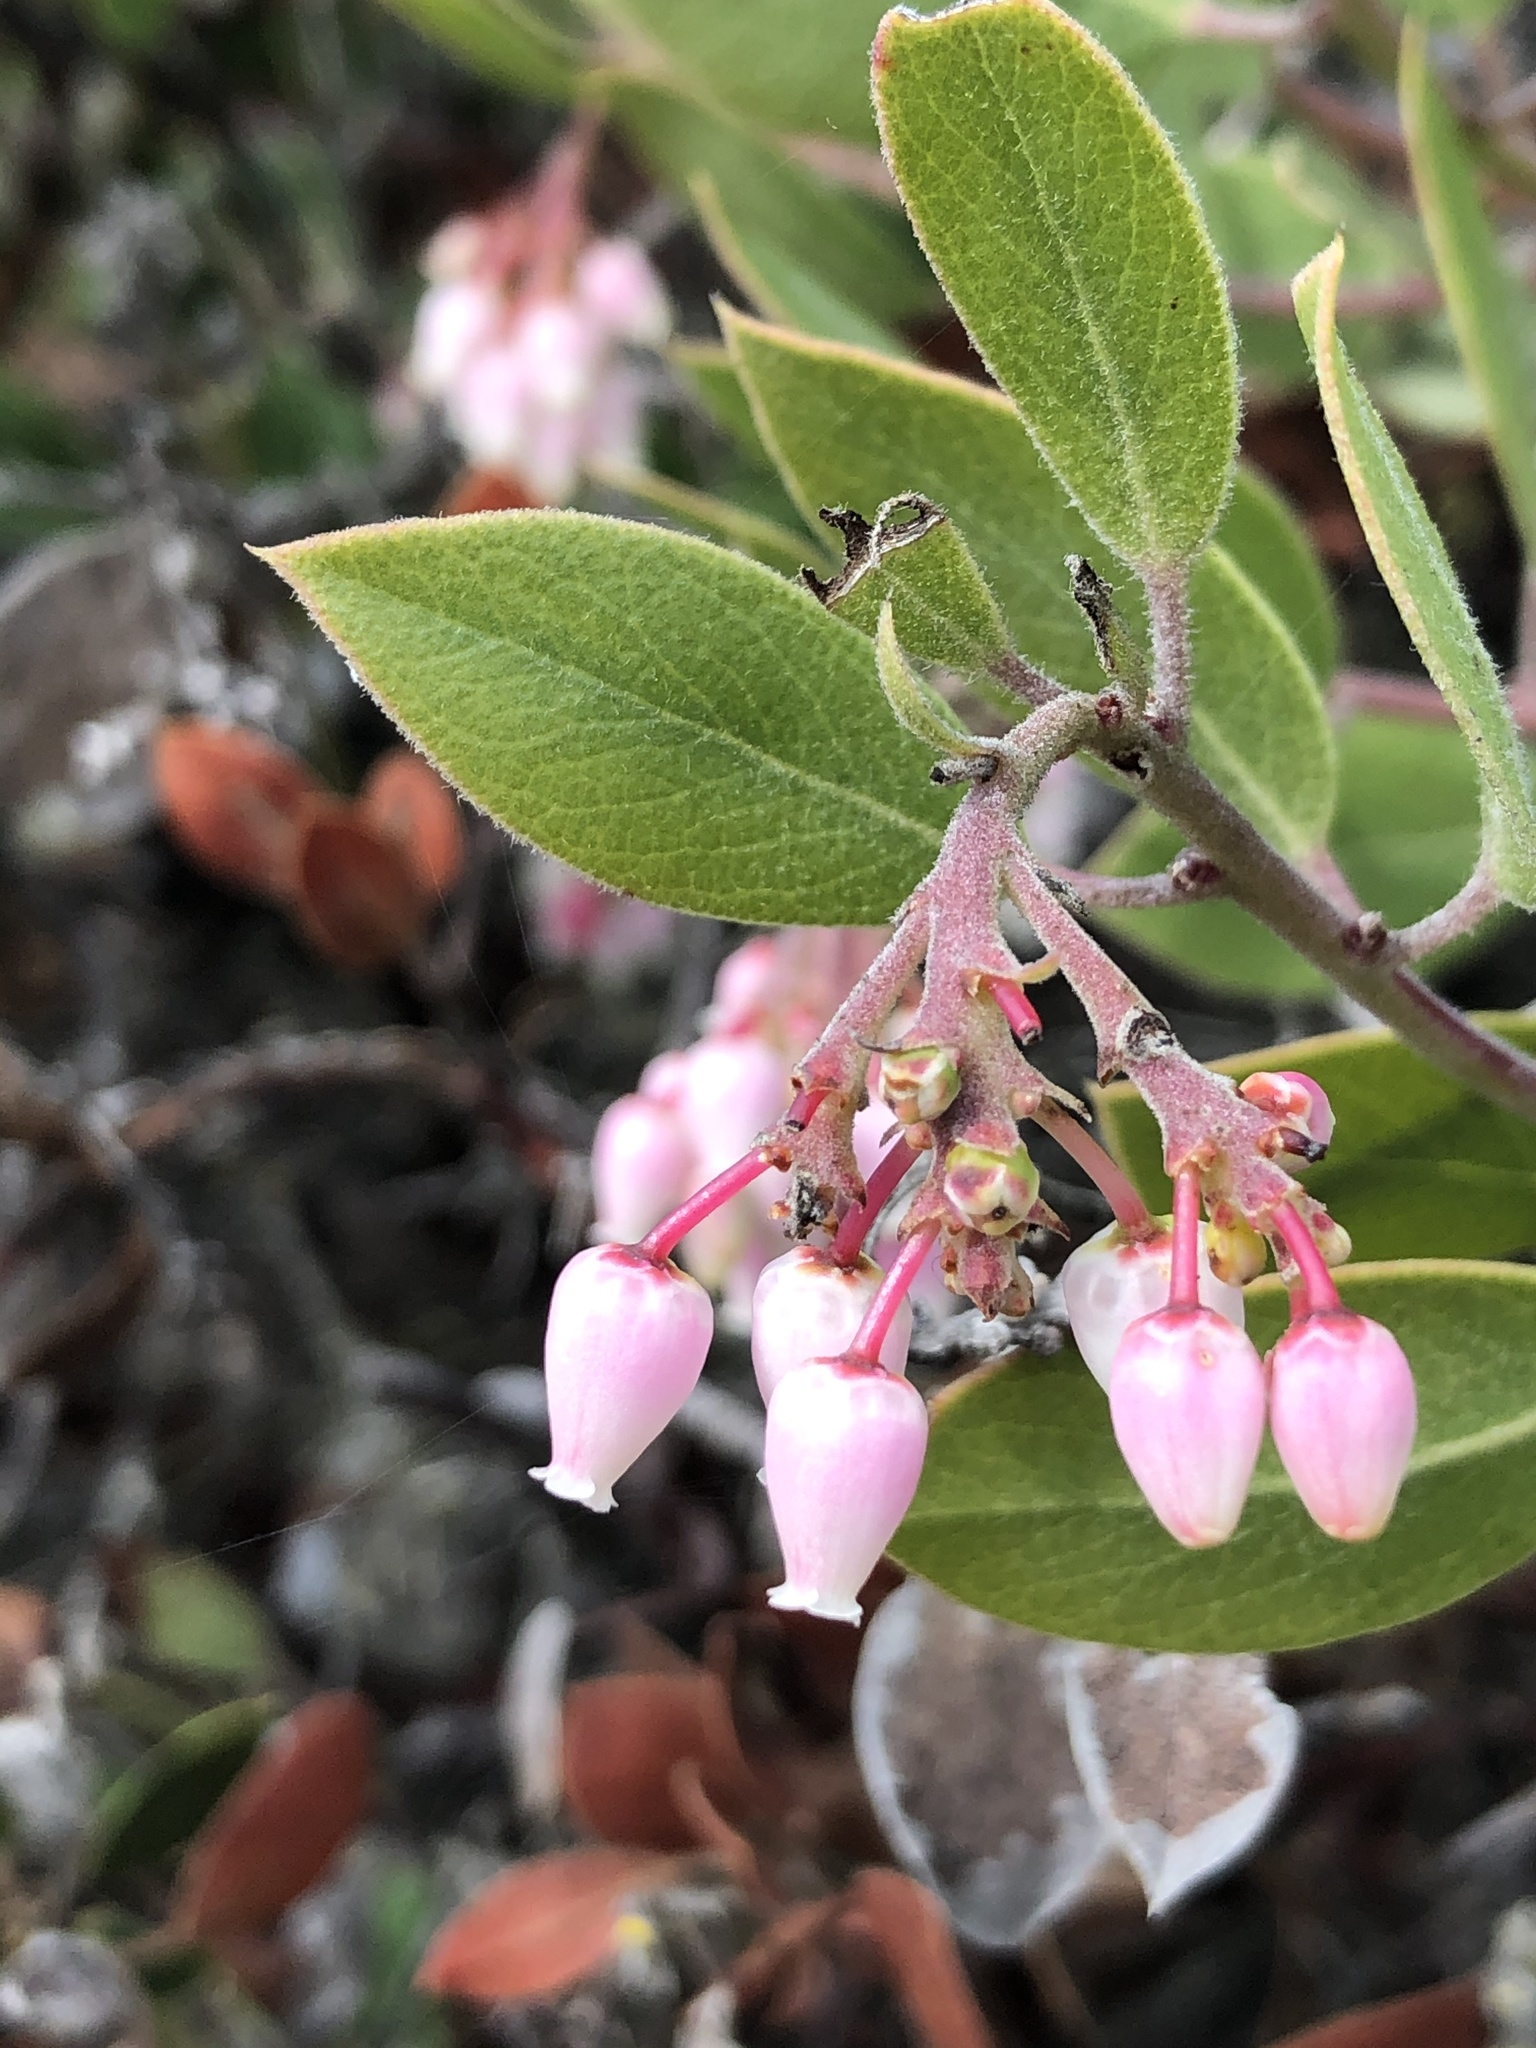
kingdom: Plantae
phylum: Tracheophyta
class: Magnoliopsida
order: Ericales
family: Ericaceae
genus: Arctostaphylos
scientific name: Arctostaphylos rudis
